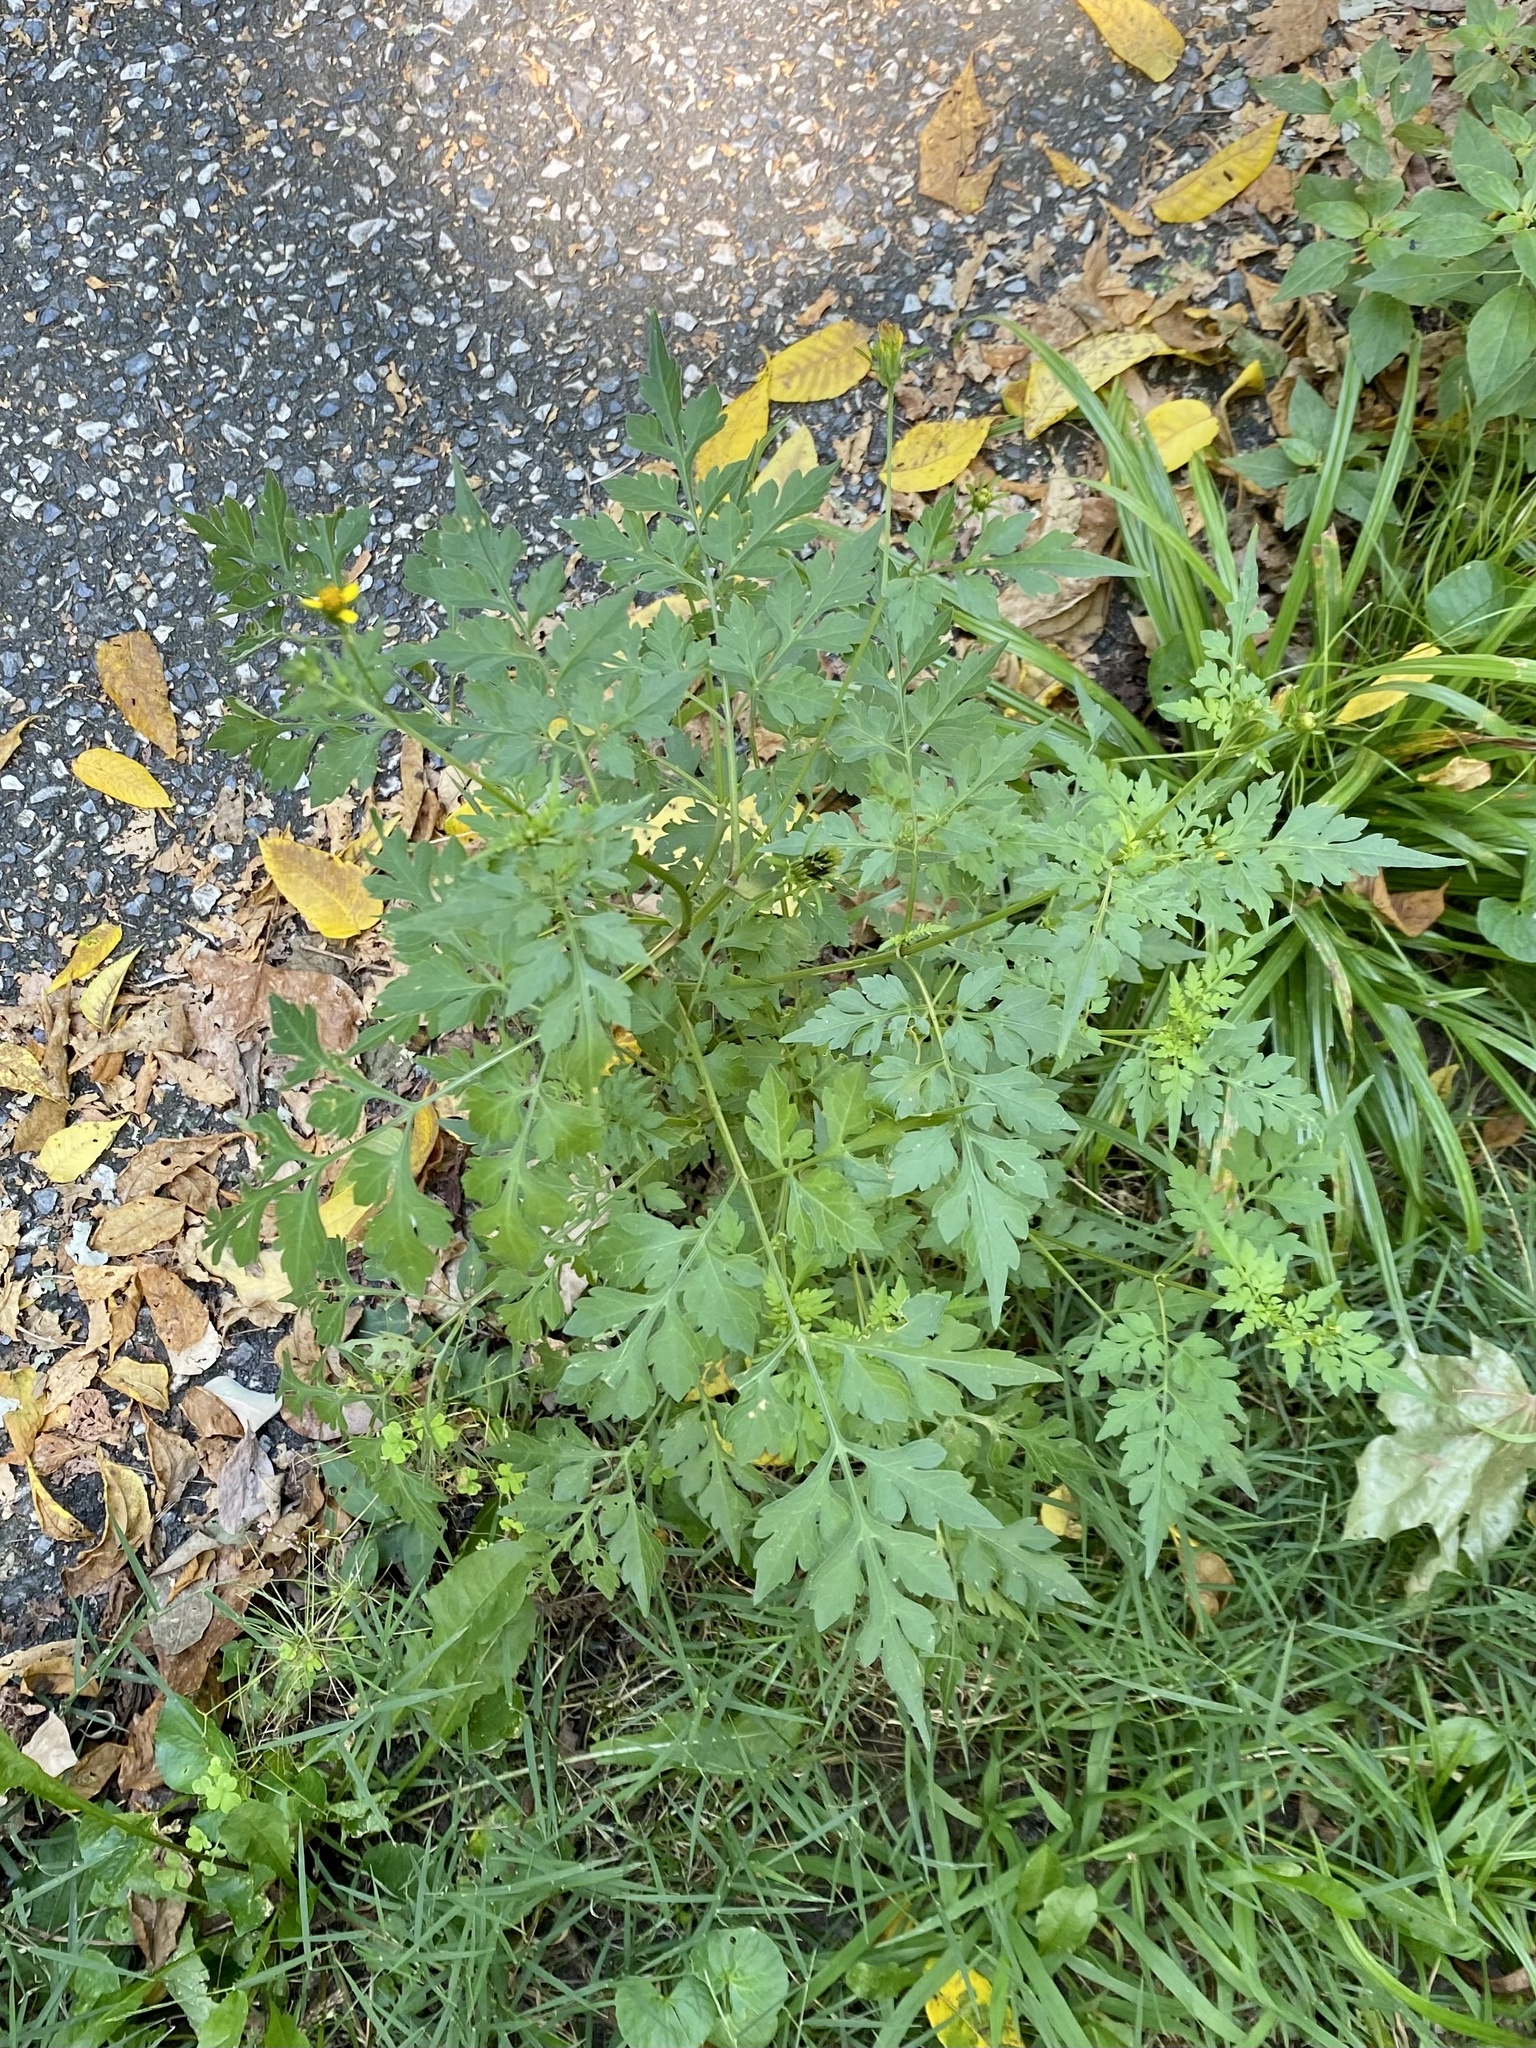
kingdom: Plantae
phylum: Tracheophyta
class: Magnoliopsida
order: Asterales
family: Asteraceae
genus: Bidens
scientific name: Bidens bipinnata
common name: Spanish-needles
